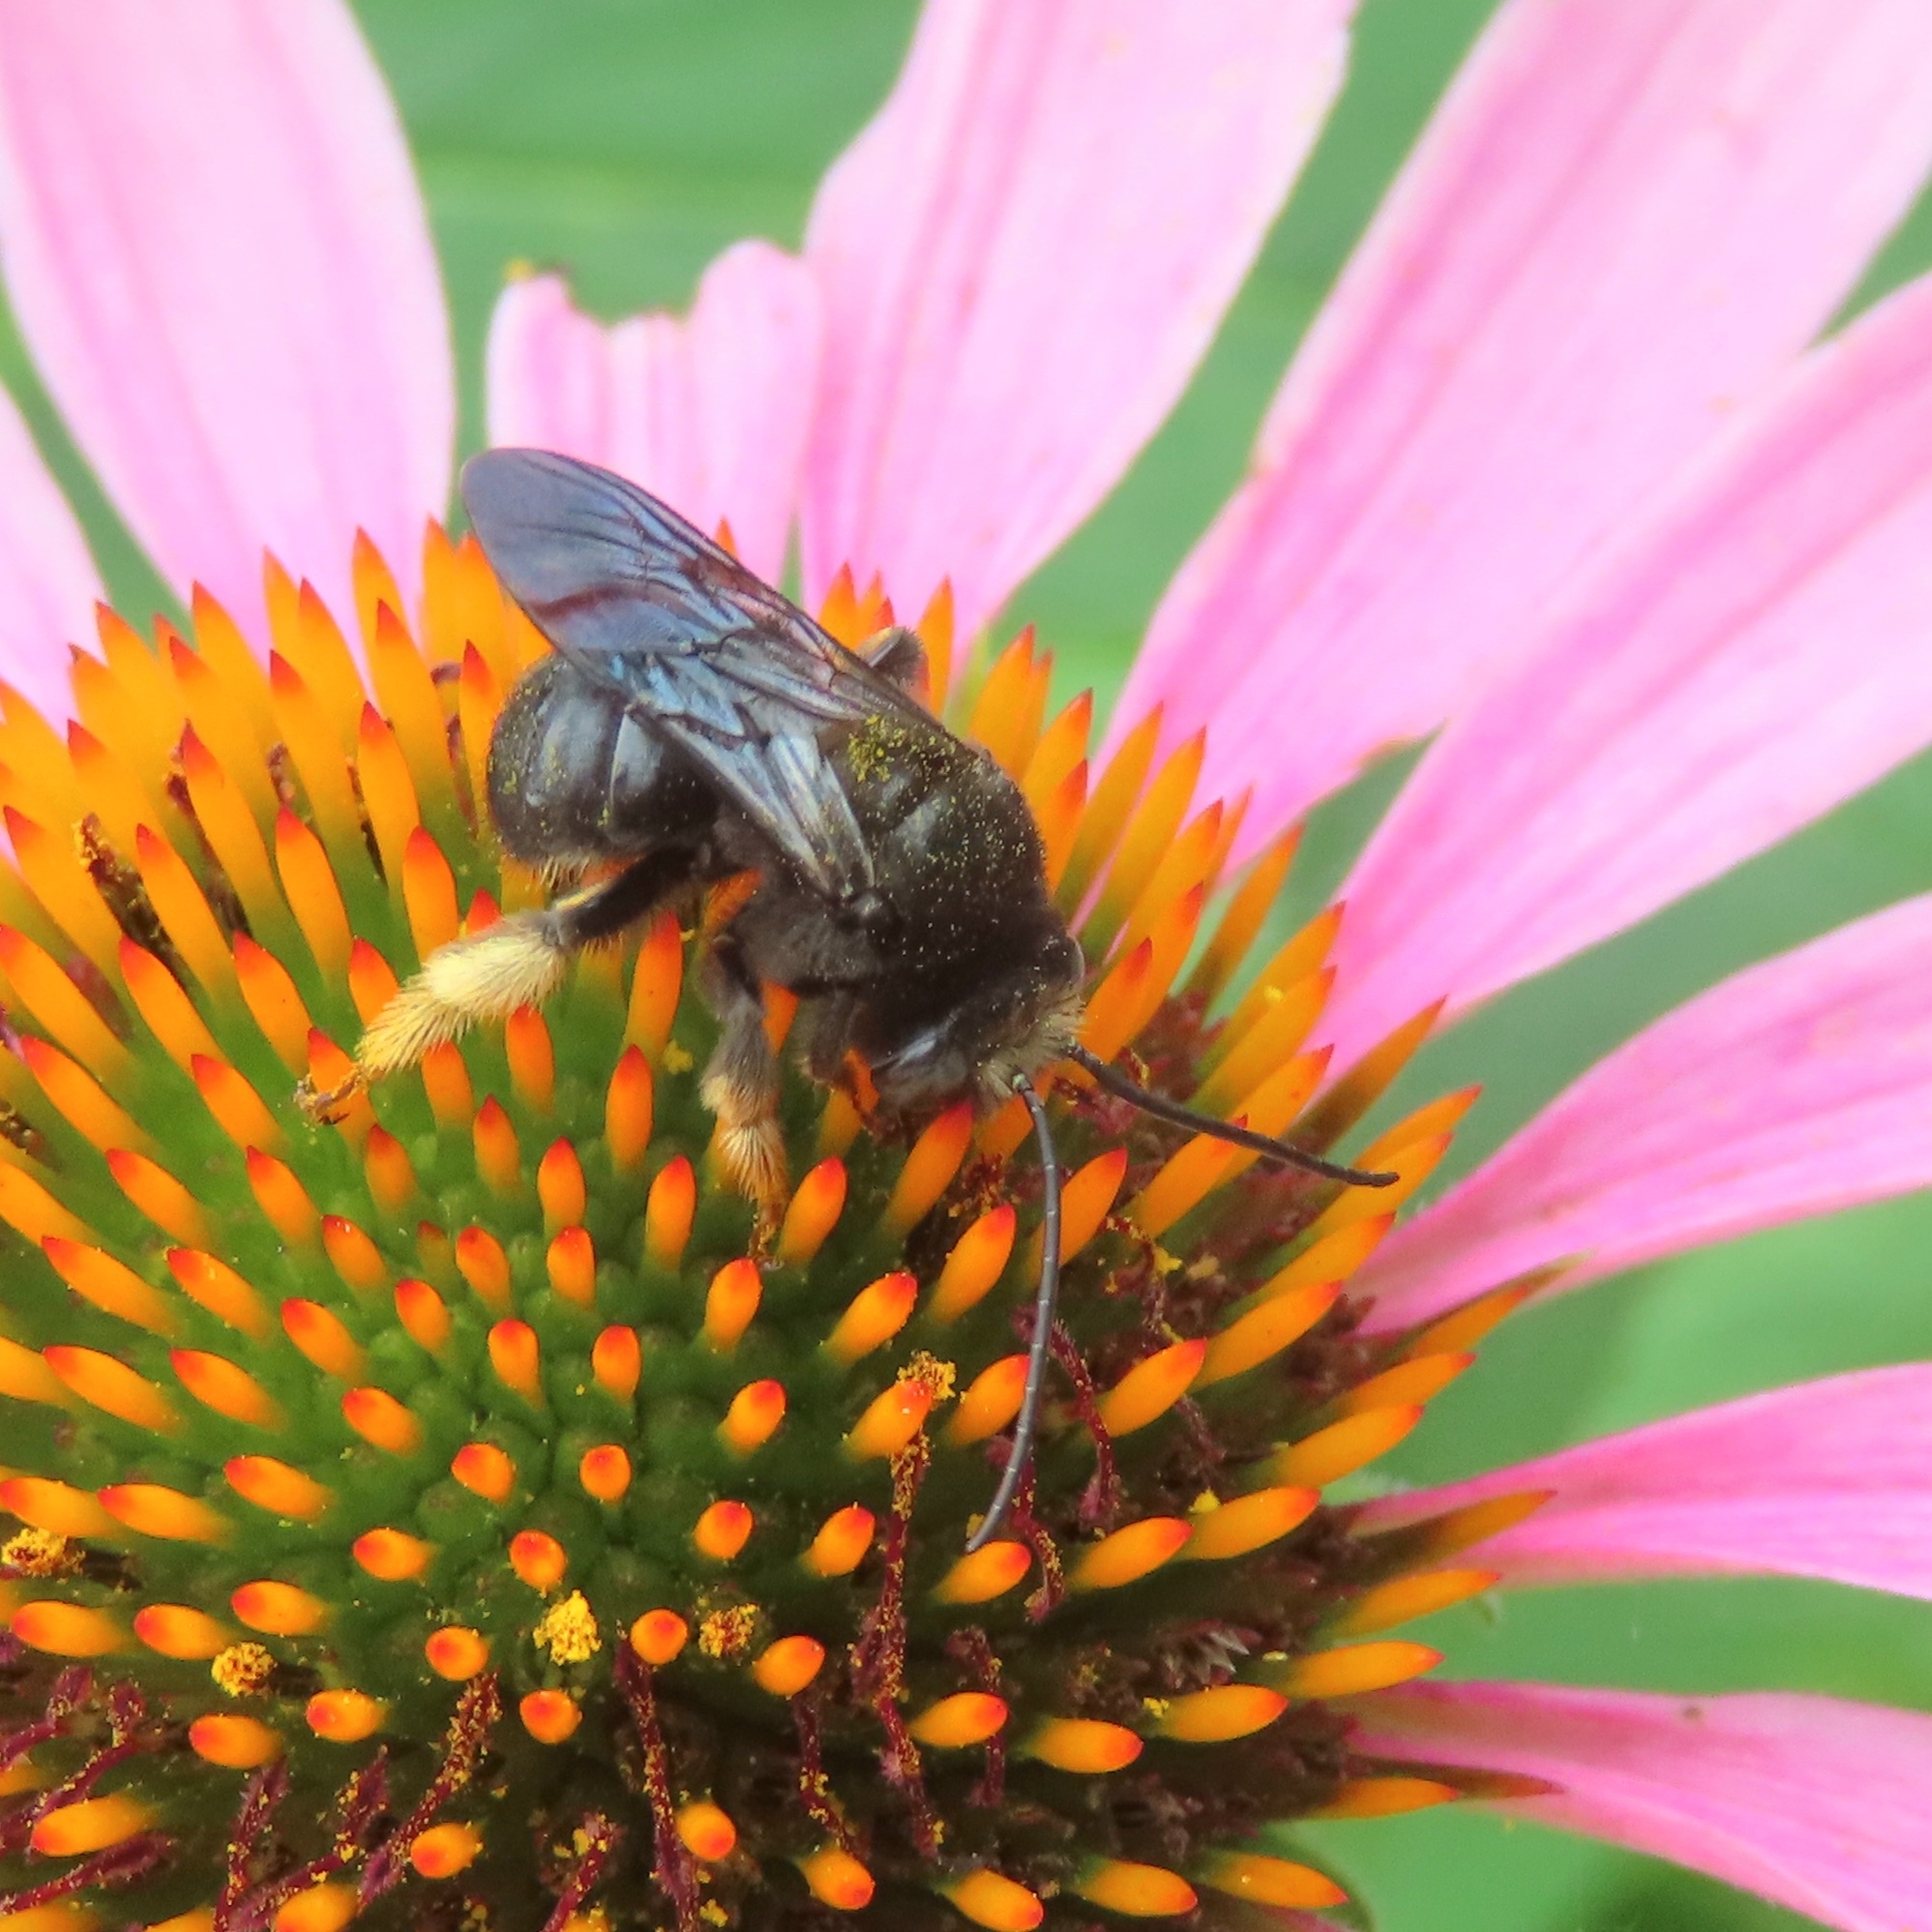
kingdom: Animalia
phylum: Arthropoda
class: Insecta
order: Hymenoptera
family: Apidae
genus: Melissodes
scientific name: Melissodes bimaculatus
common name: Two-spotted long-horned bee
